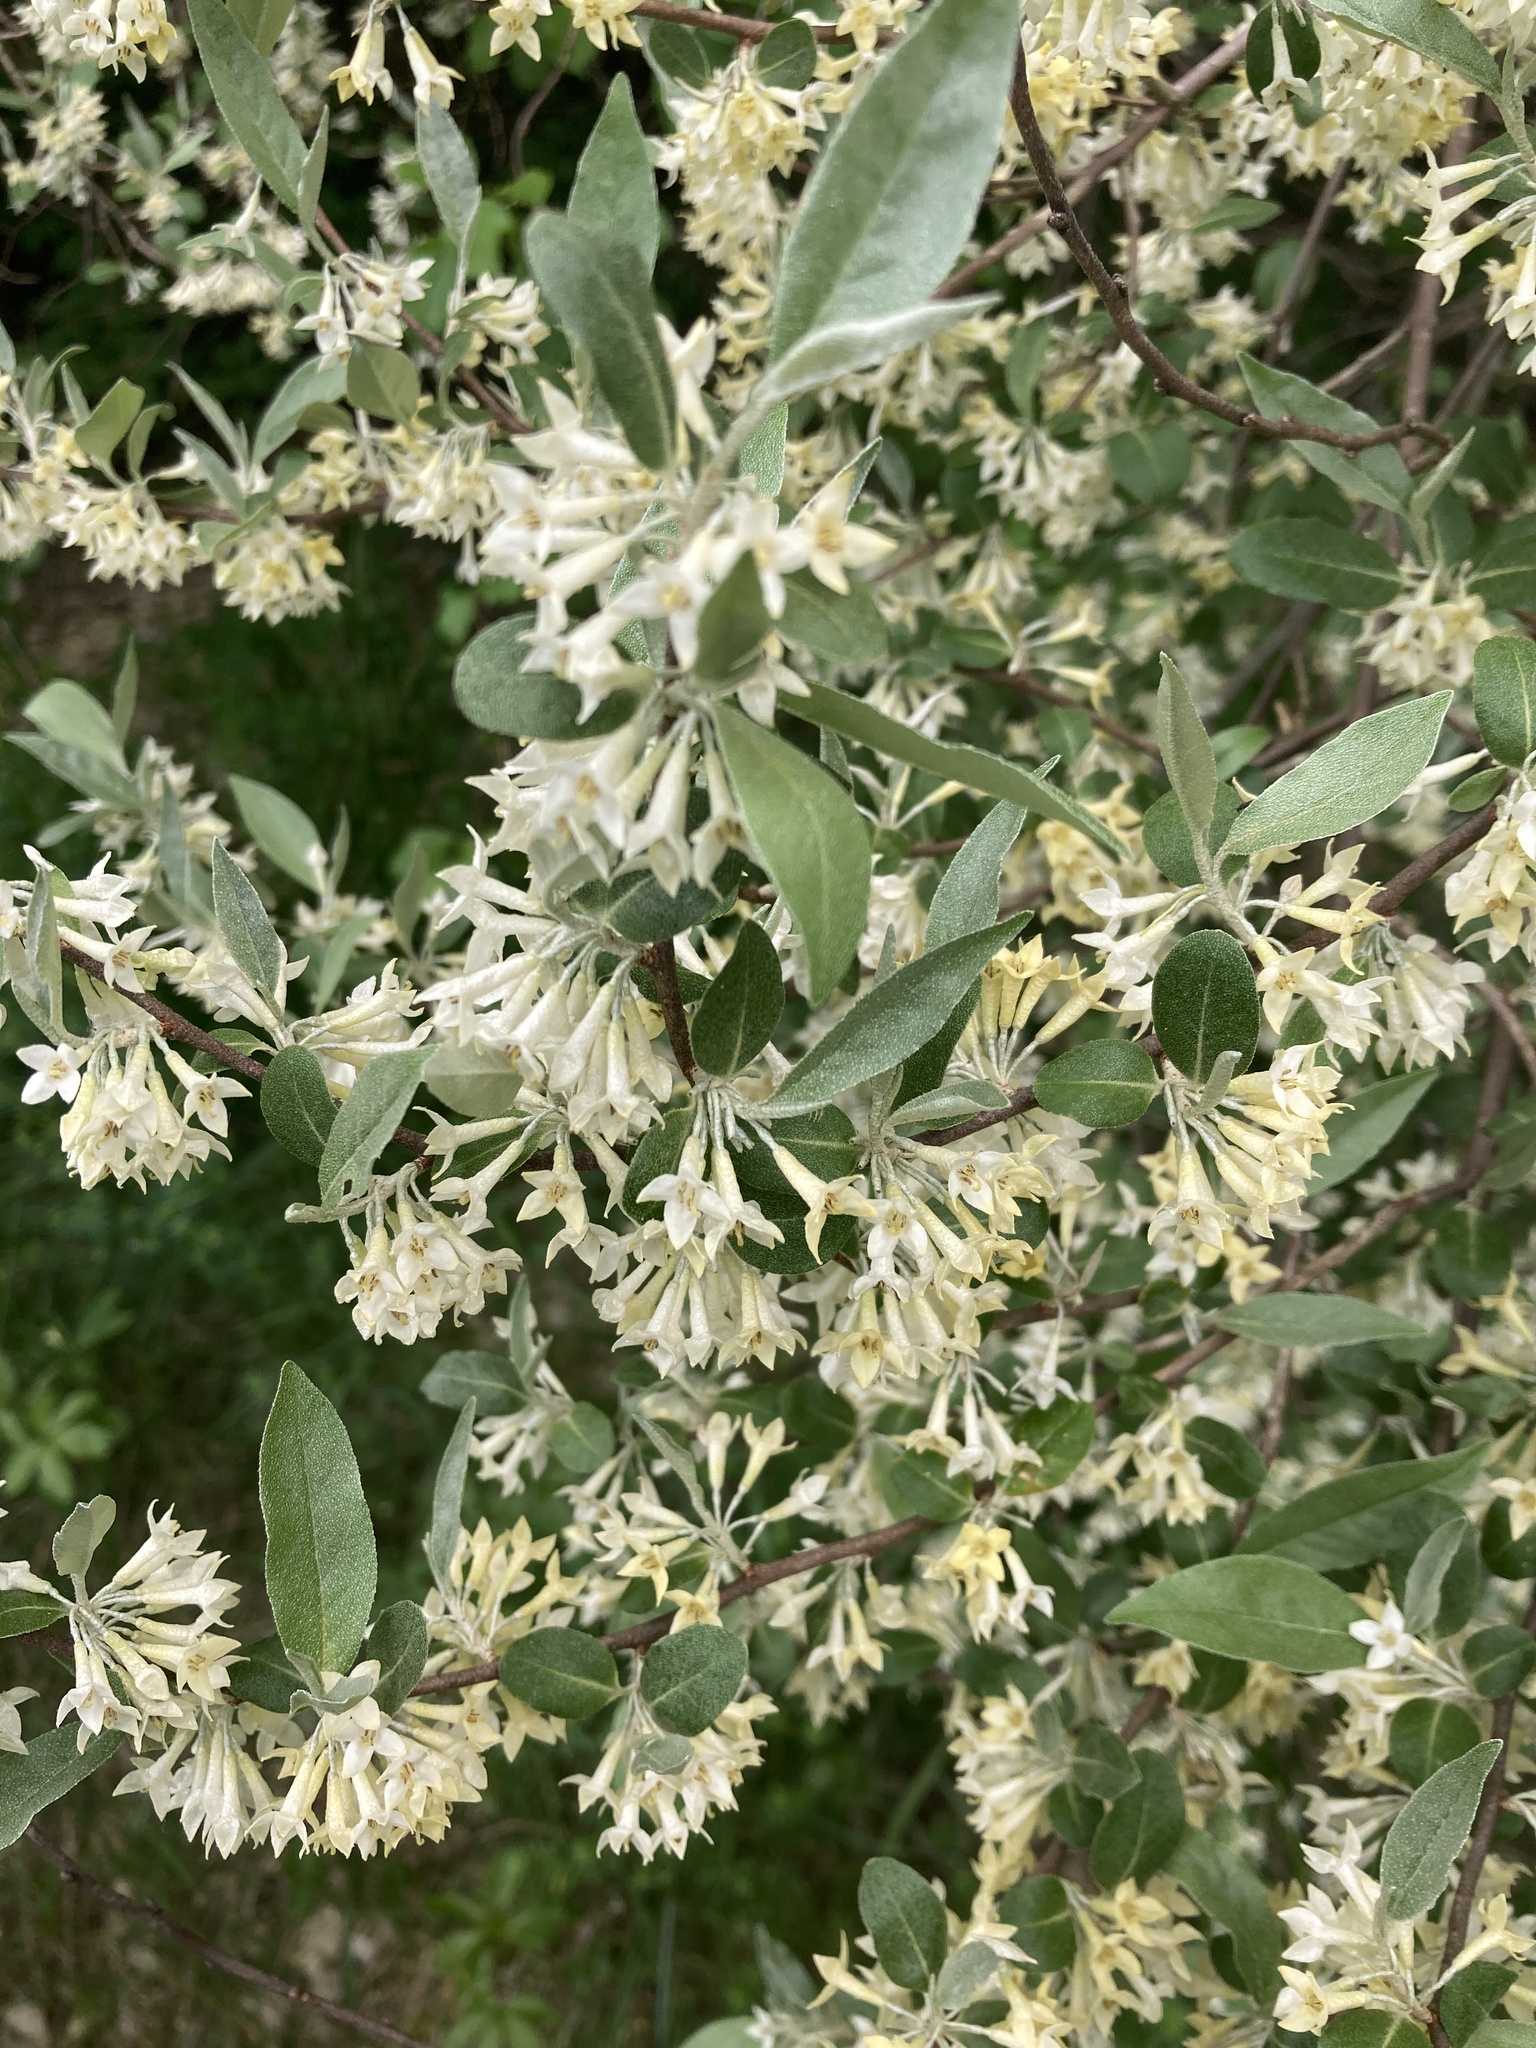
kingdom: Plantae
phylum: Tracheophyta
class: Magnoliopsida
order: Rosales
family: Elaeagnaceae
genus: Elaeagnus
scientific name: Elaeagnus umbellata
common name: Autumn olive
